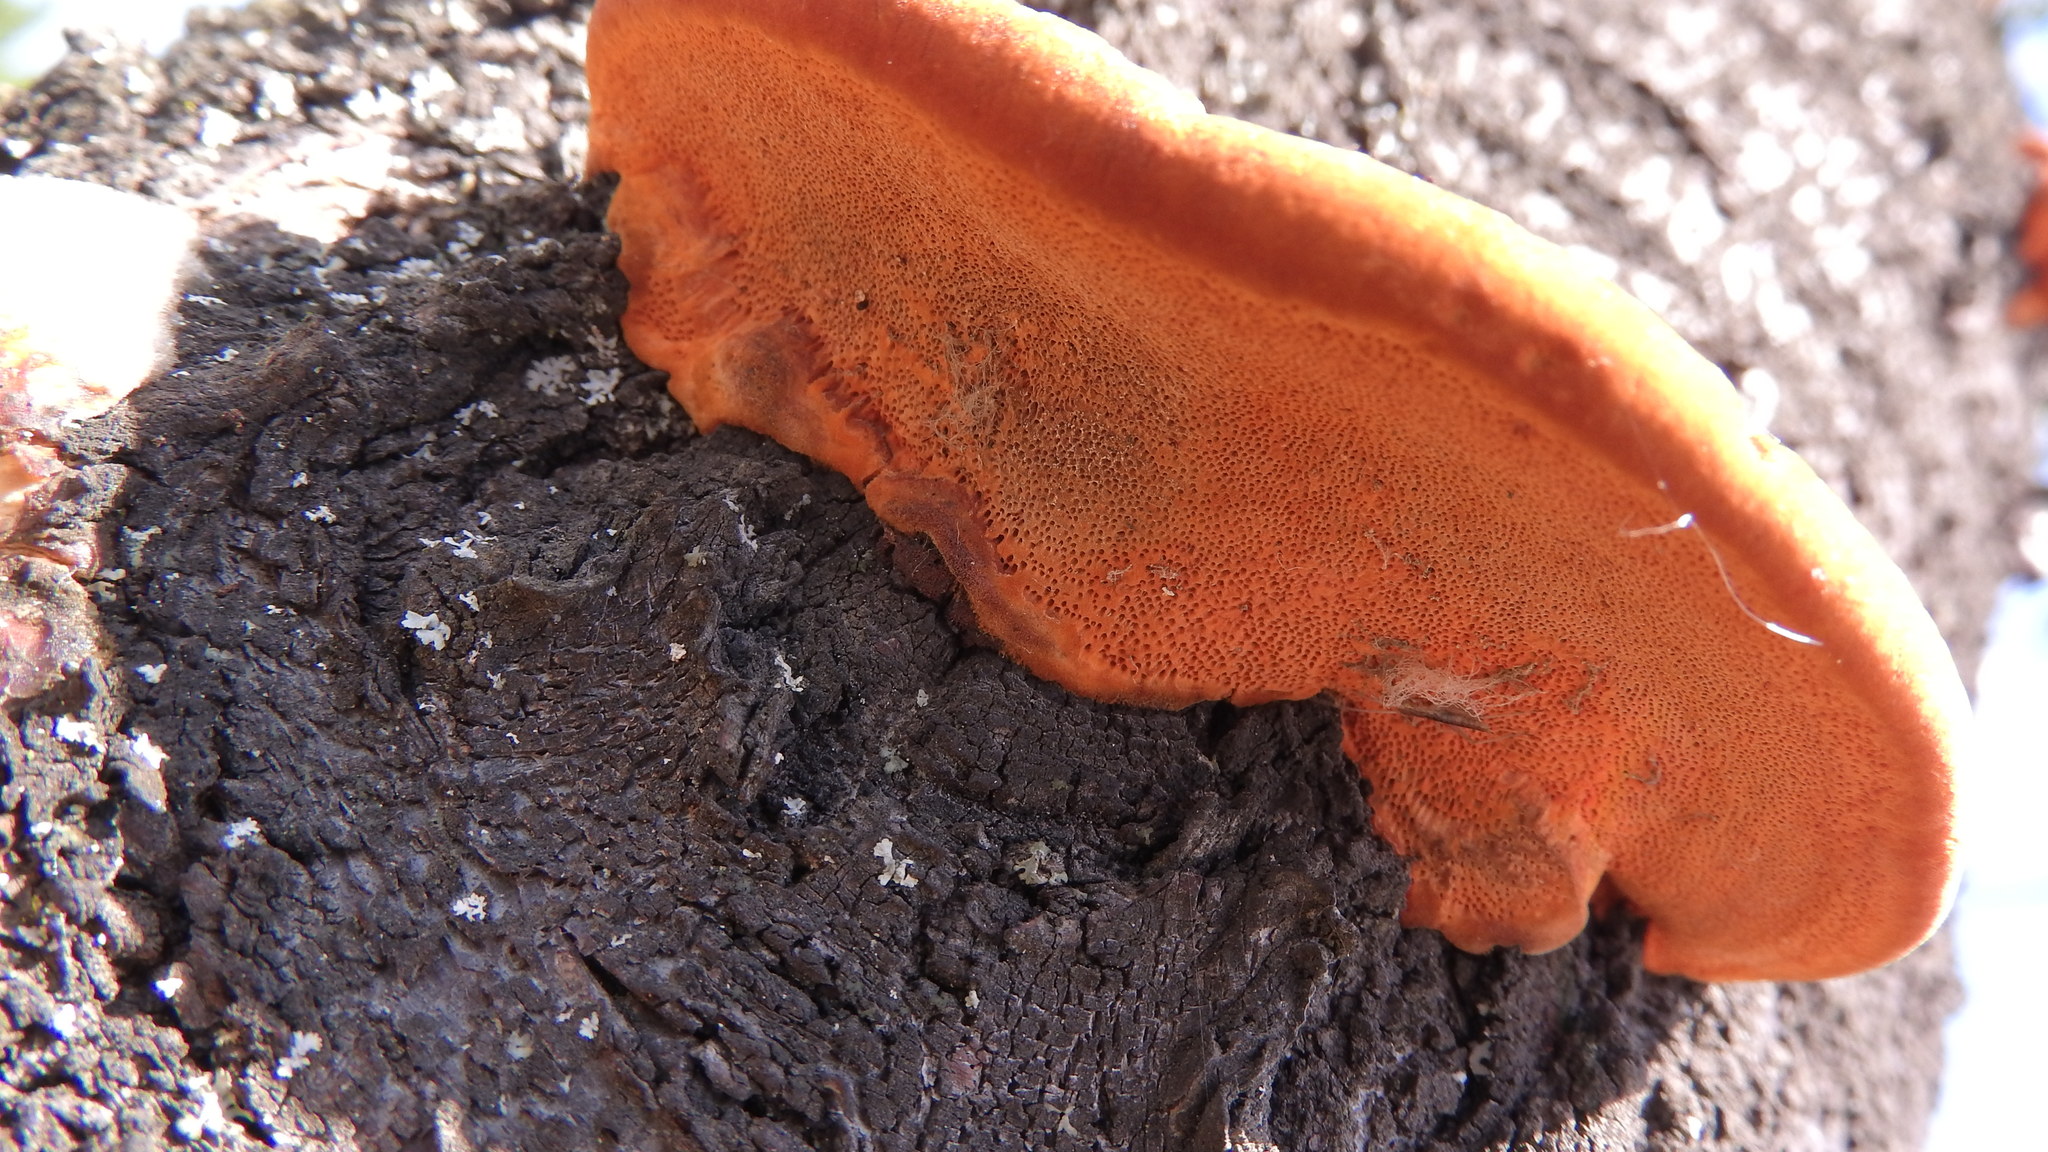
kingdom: Fungi
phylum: Basidiomycota
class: Agaricomycetes
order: Polyporales
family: Polyporaceae
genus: Trametes
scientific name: Trametes cinnabarina
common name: Northern cinnabar polypore
